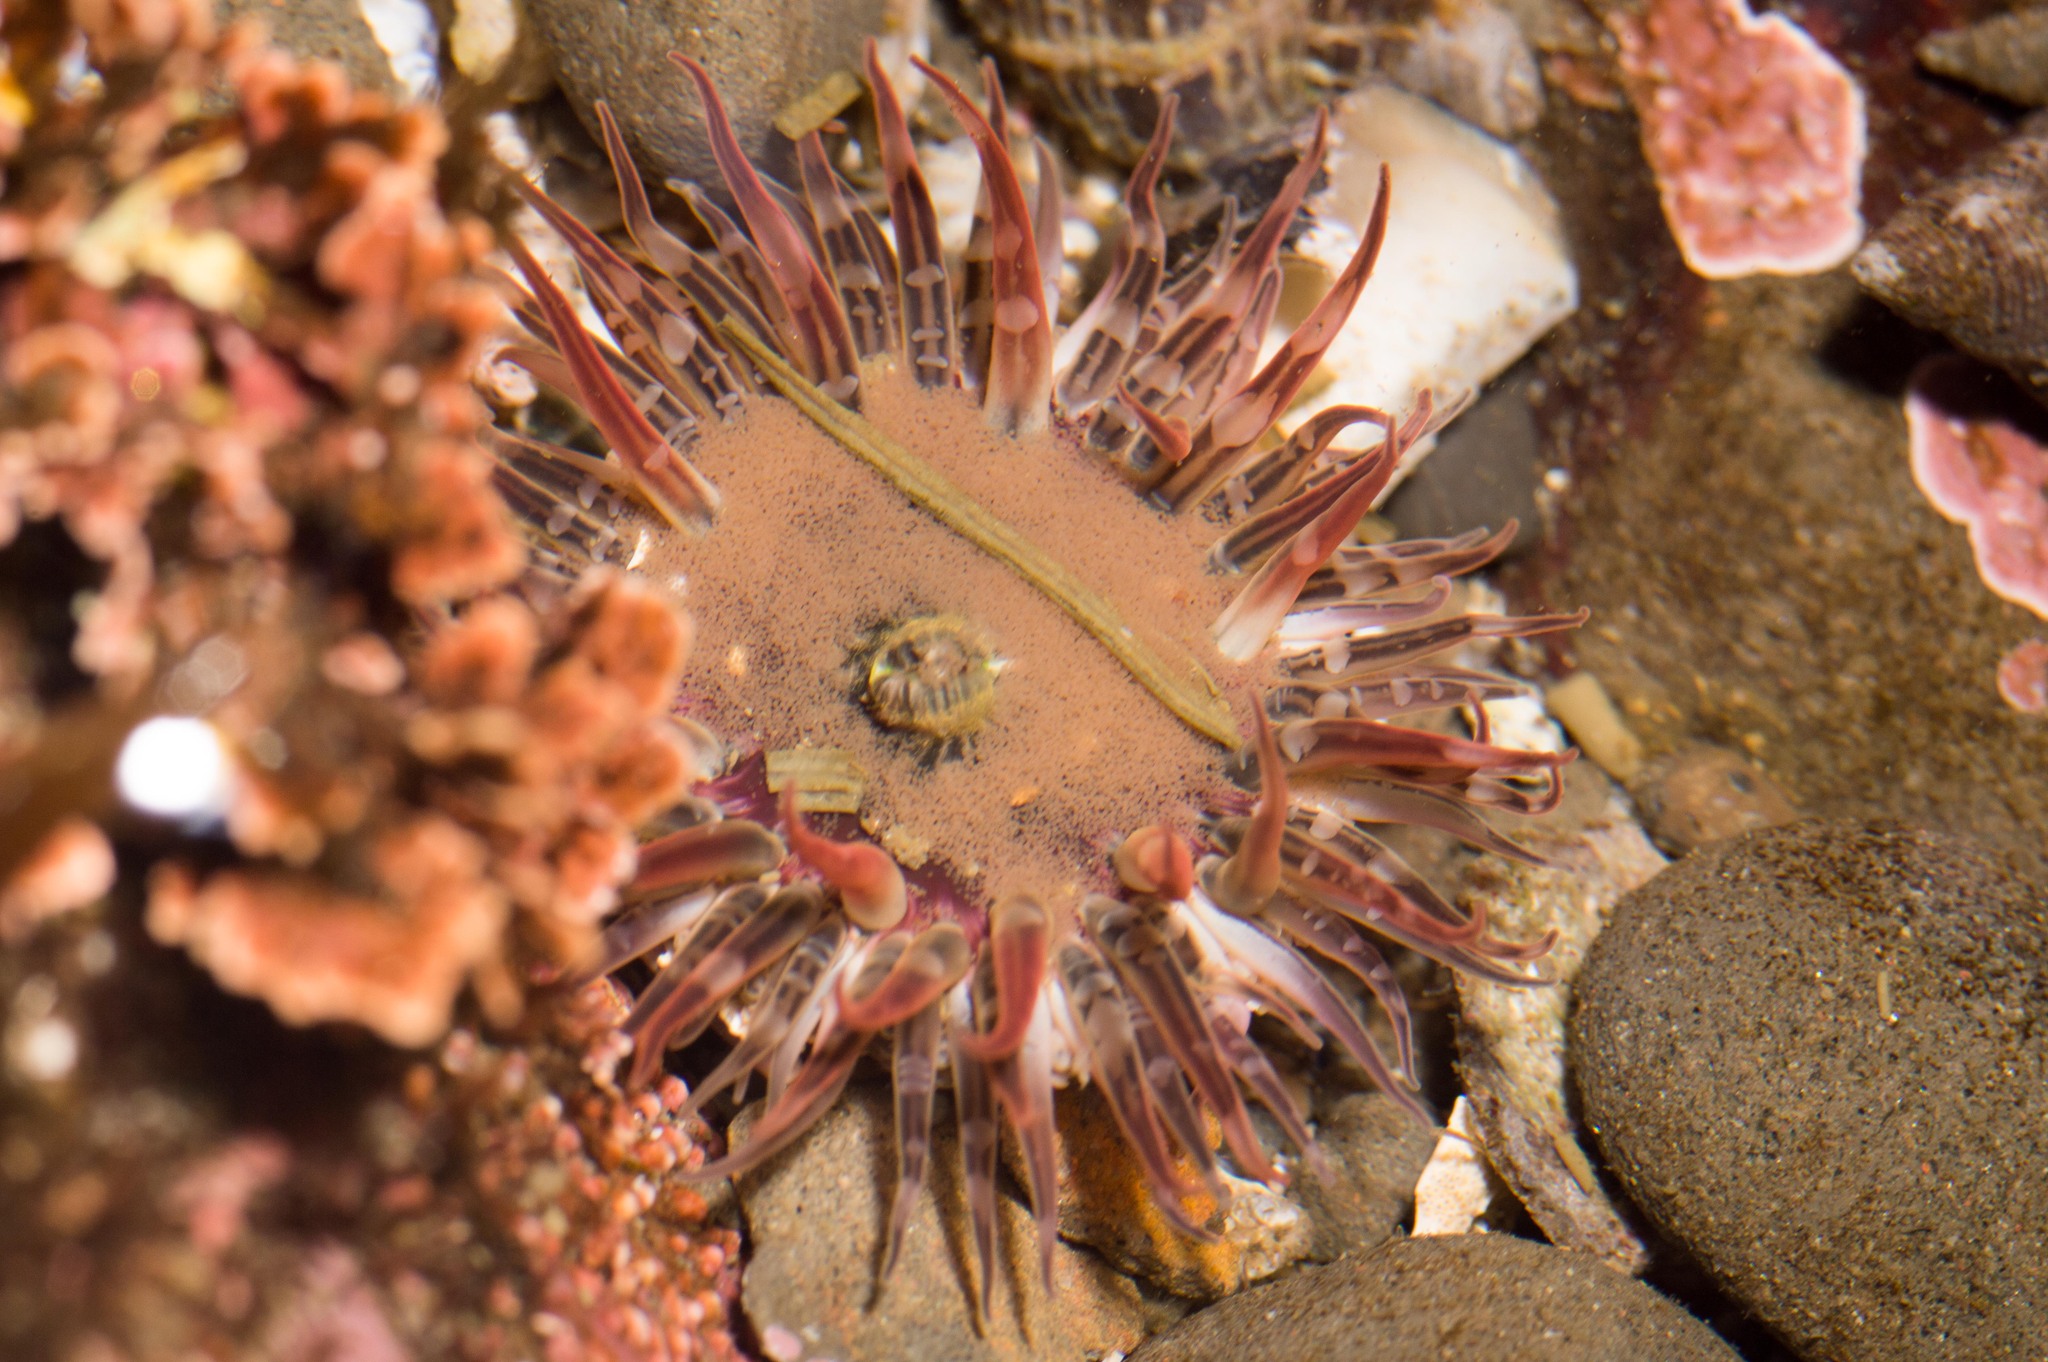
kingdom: Animalia
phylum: Cnidaria
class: Anthozoa
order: Actiniaria
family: Actiniidae
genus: Anthopleura
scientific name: Anthopleura artemisia
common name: Buried sea anemone
